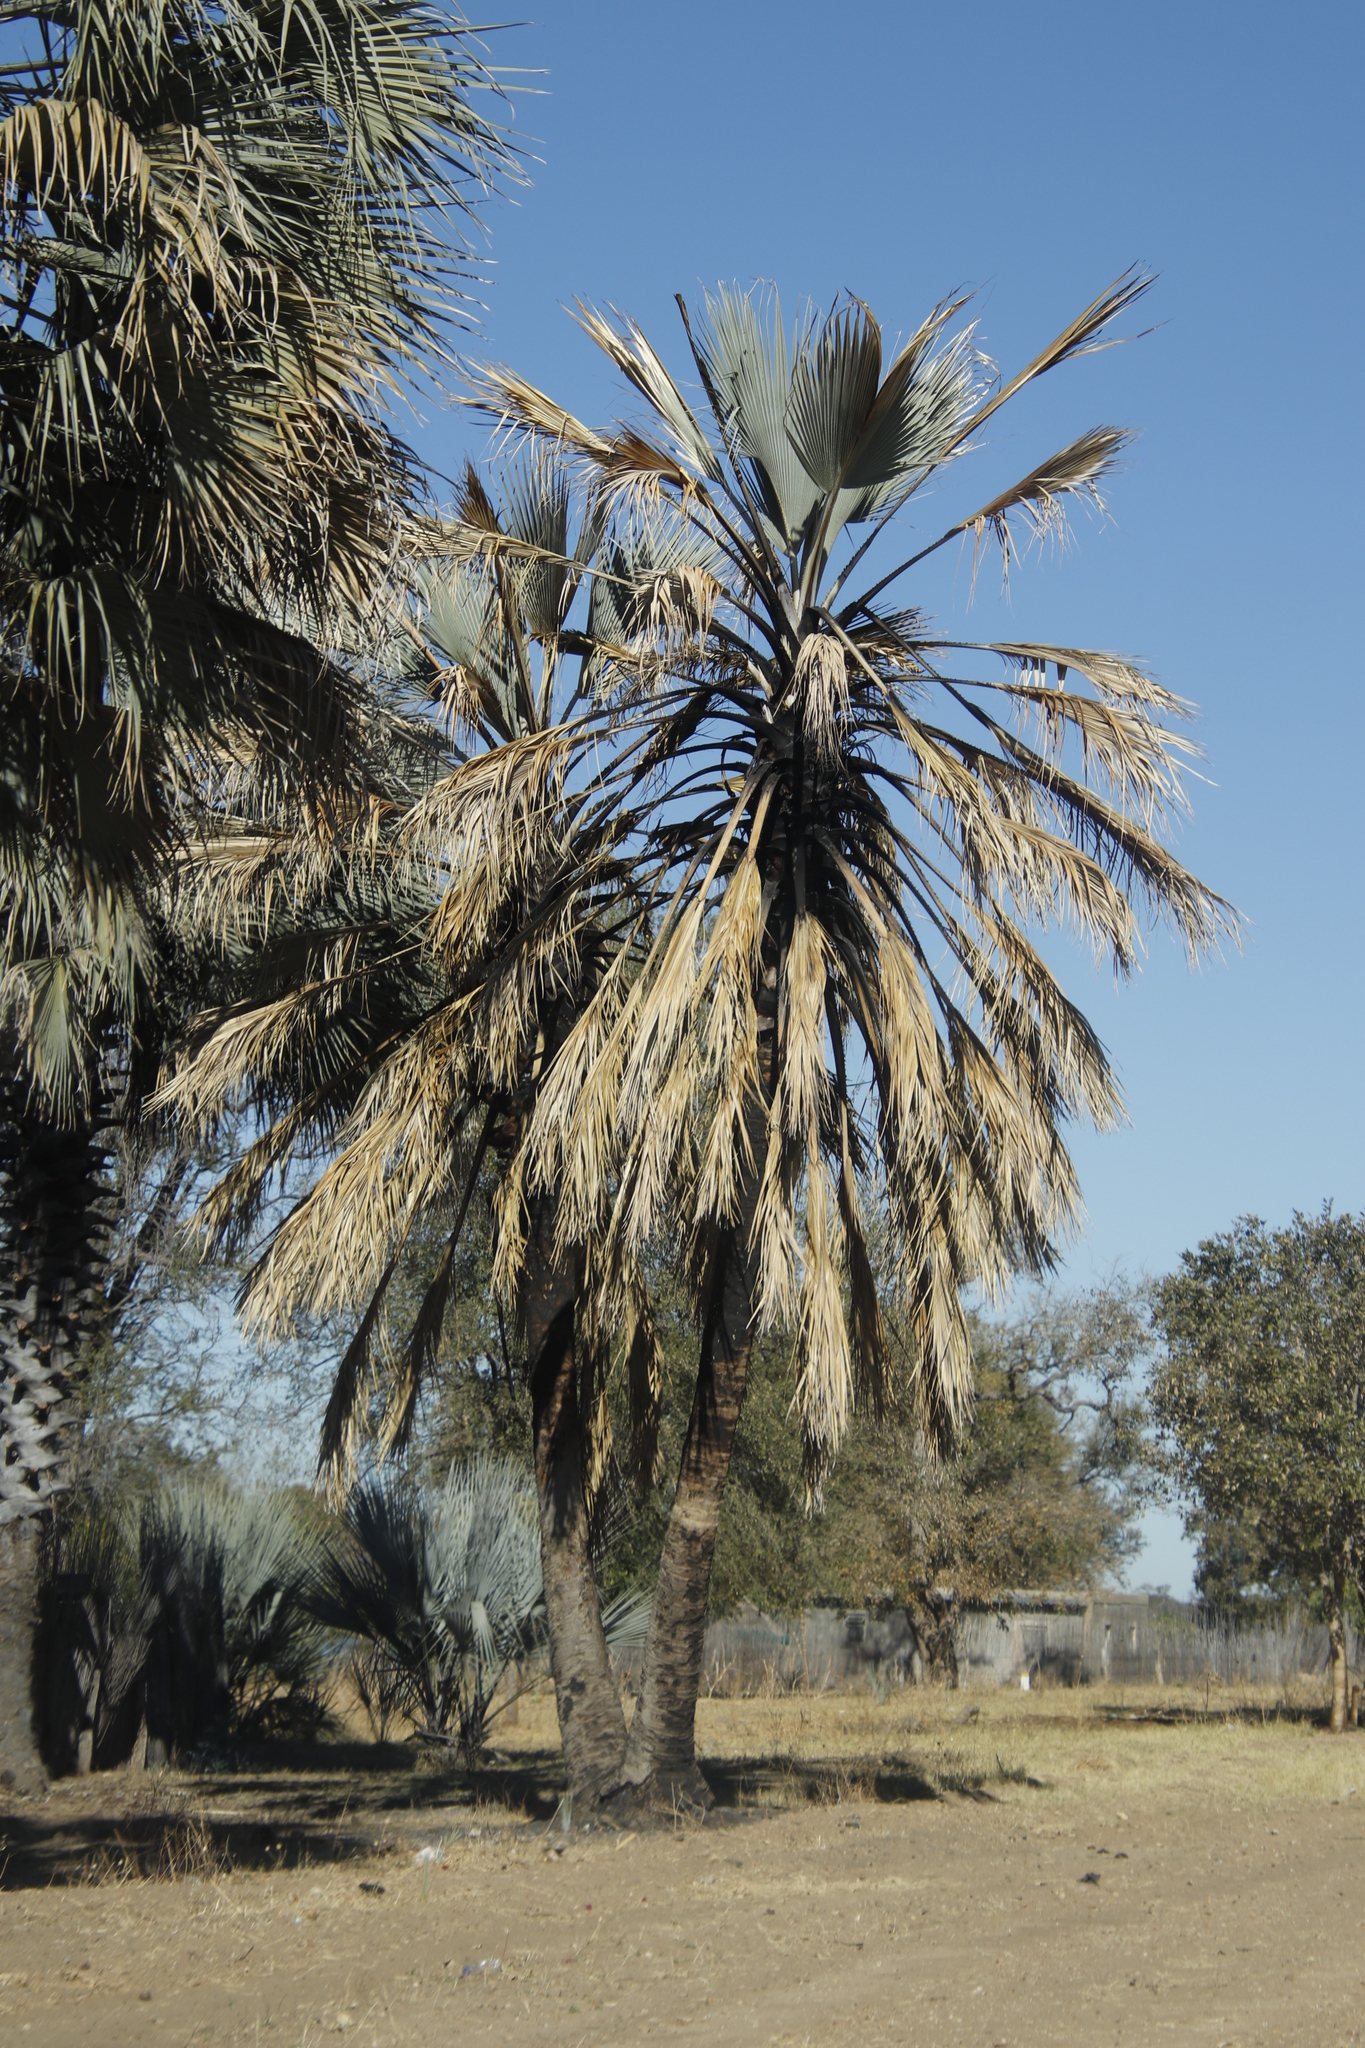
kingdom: Plantae
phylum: Tracheophyta
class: Liliopsida
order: Arecales
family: Arecaceae
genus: Hyphaene
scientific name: Hyphaene petersiana
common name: African ivory nut palm
